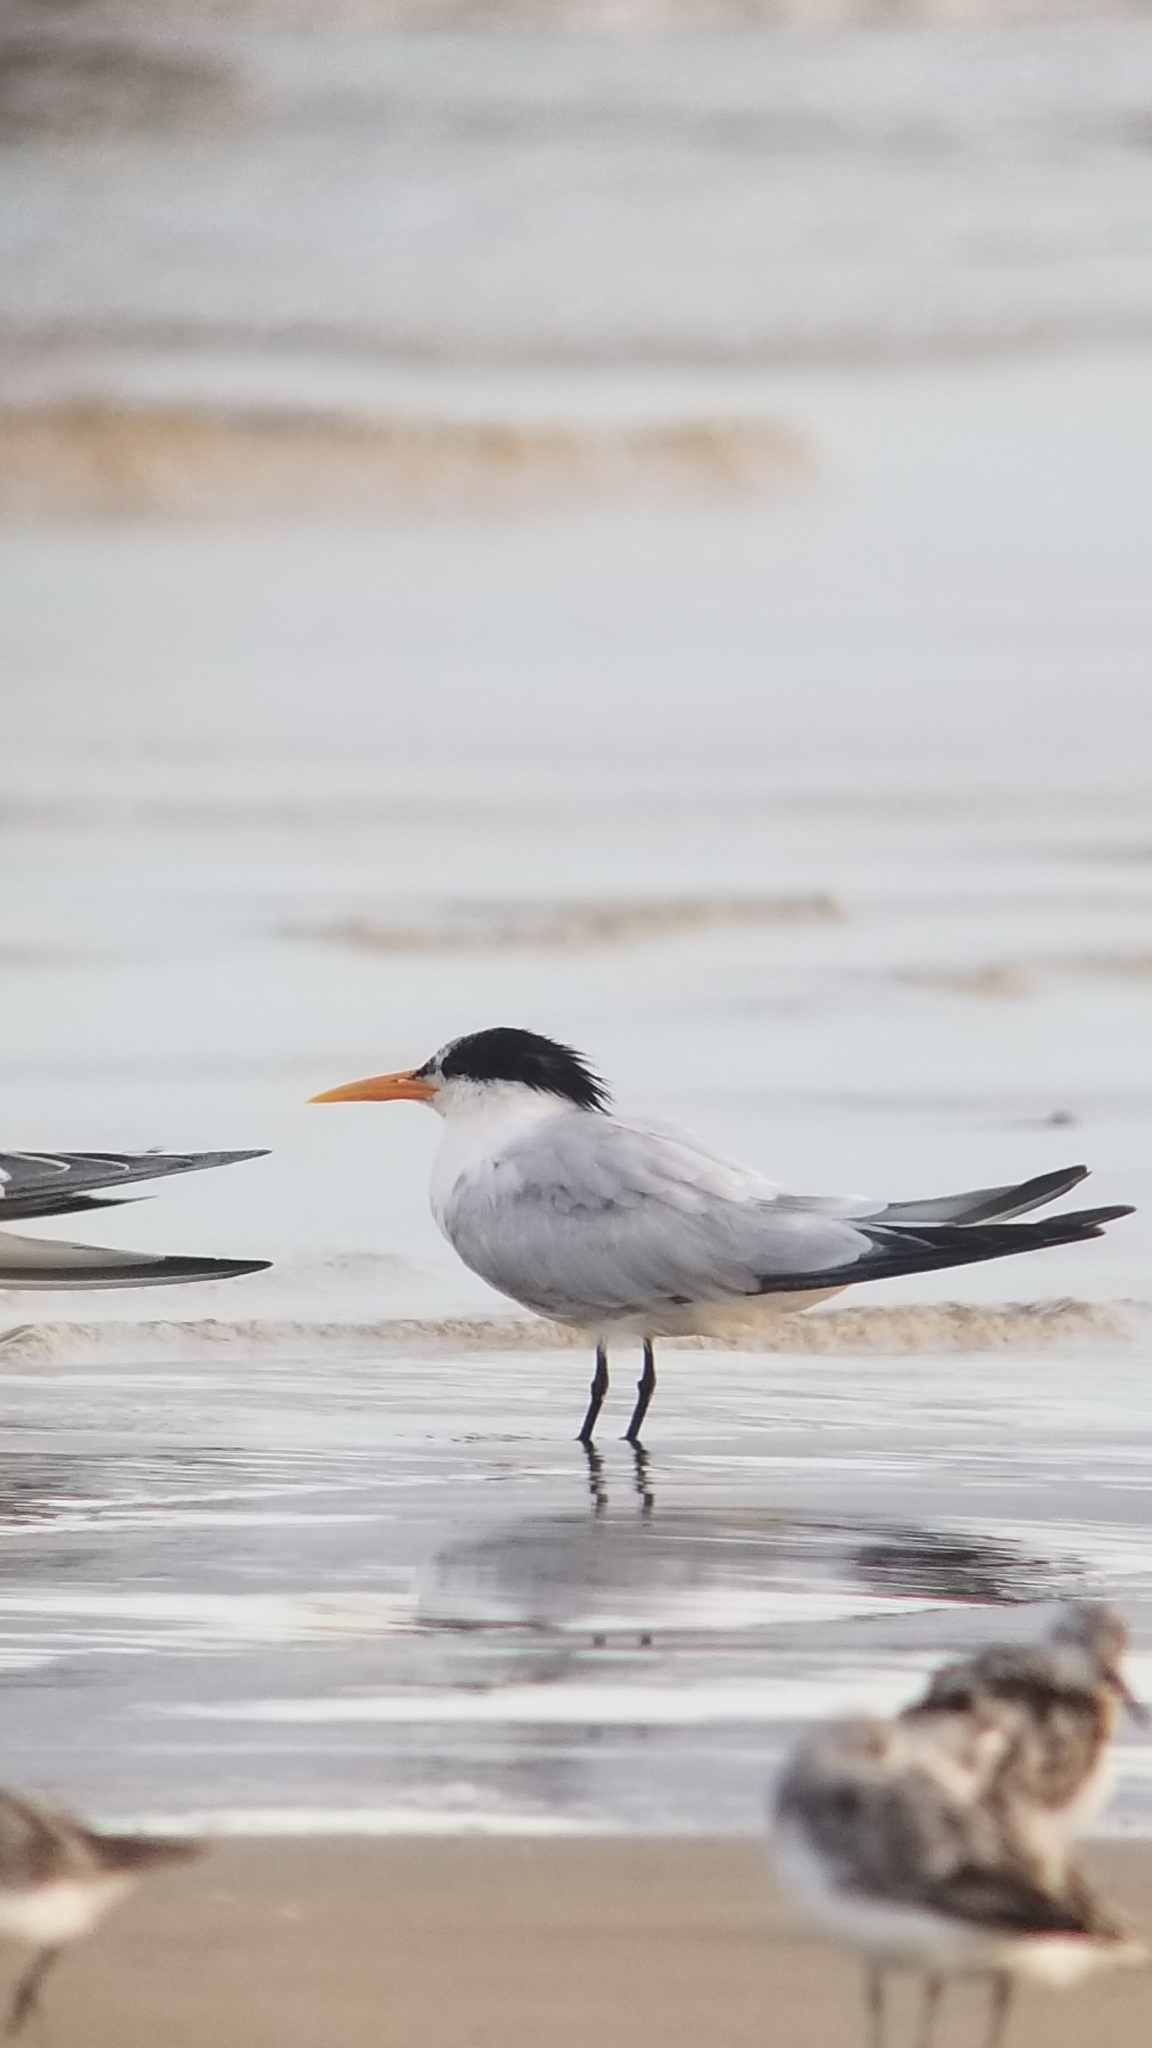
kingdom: Animalia
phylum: Chordata
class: Aves
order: Charadriiformes
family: Laridae
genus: Thalasseus
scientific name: Thalasseus elegans
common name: Elegant tern
